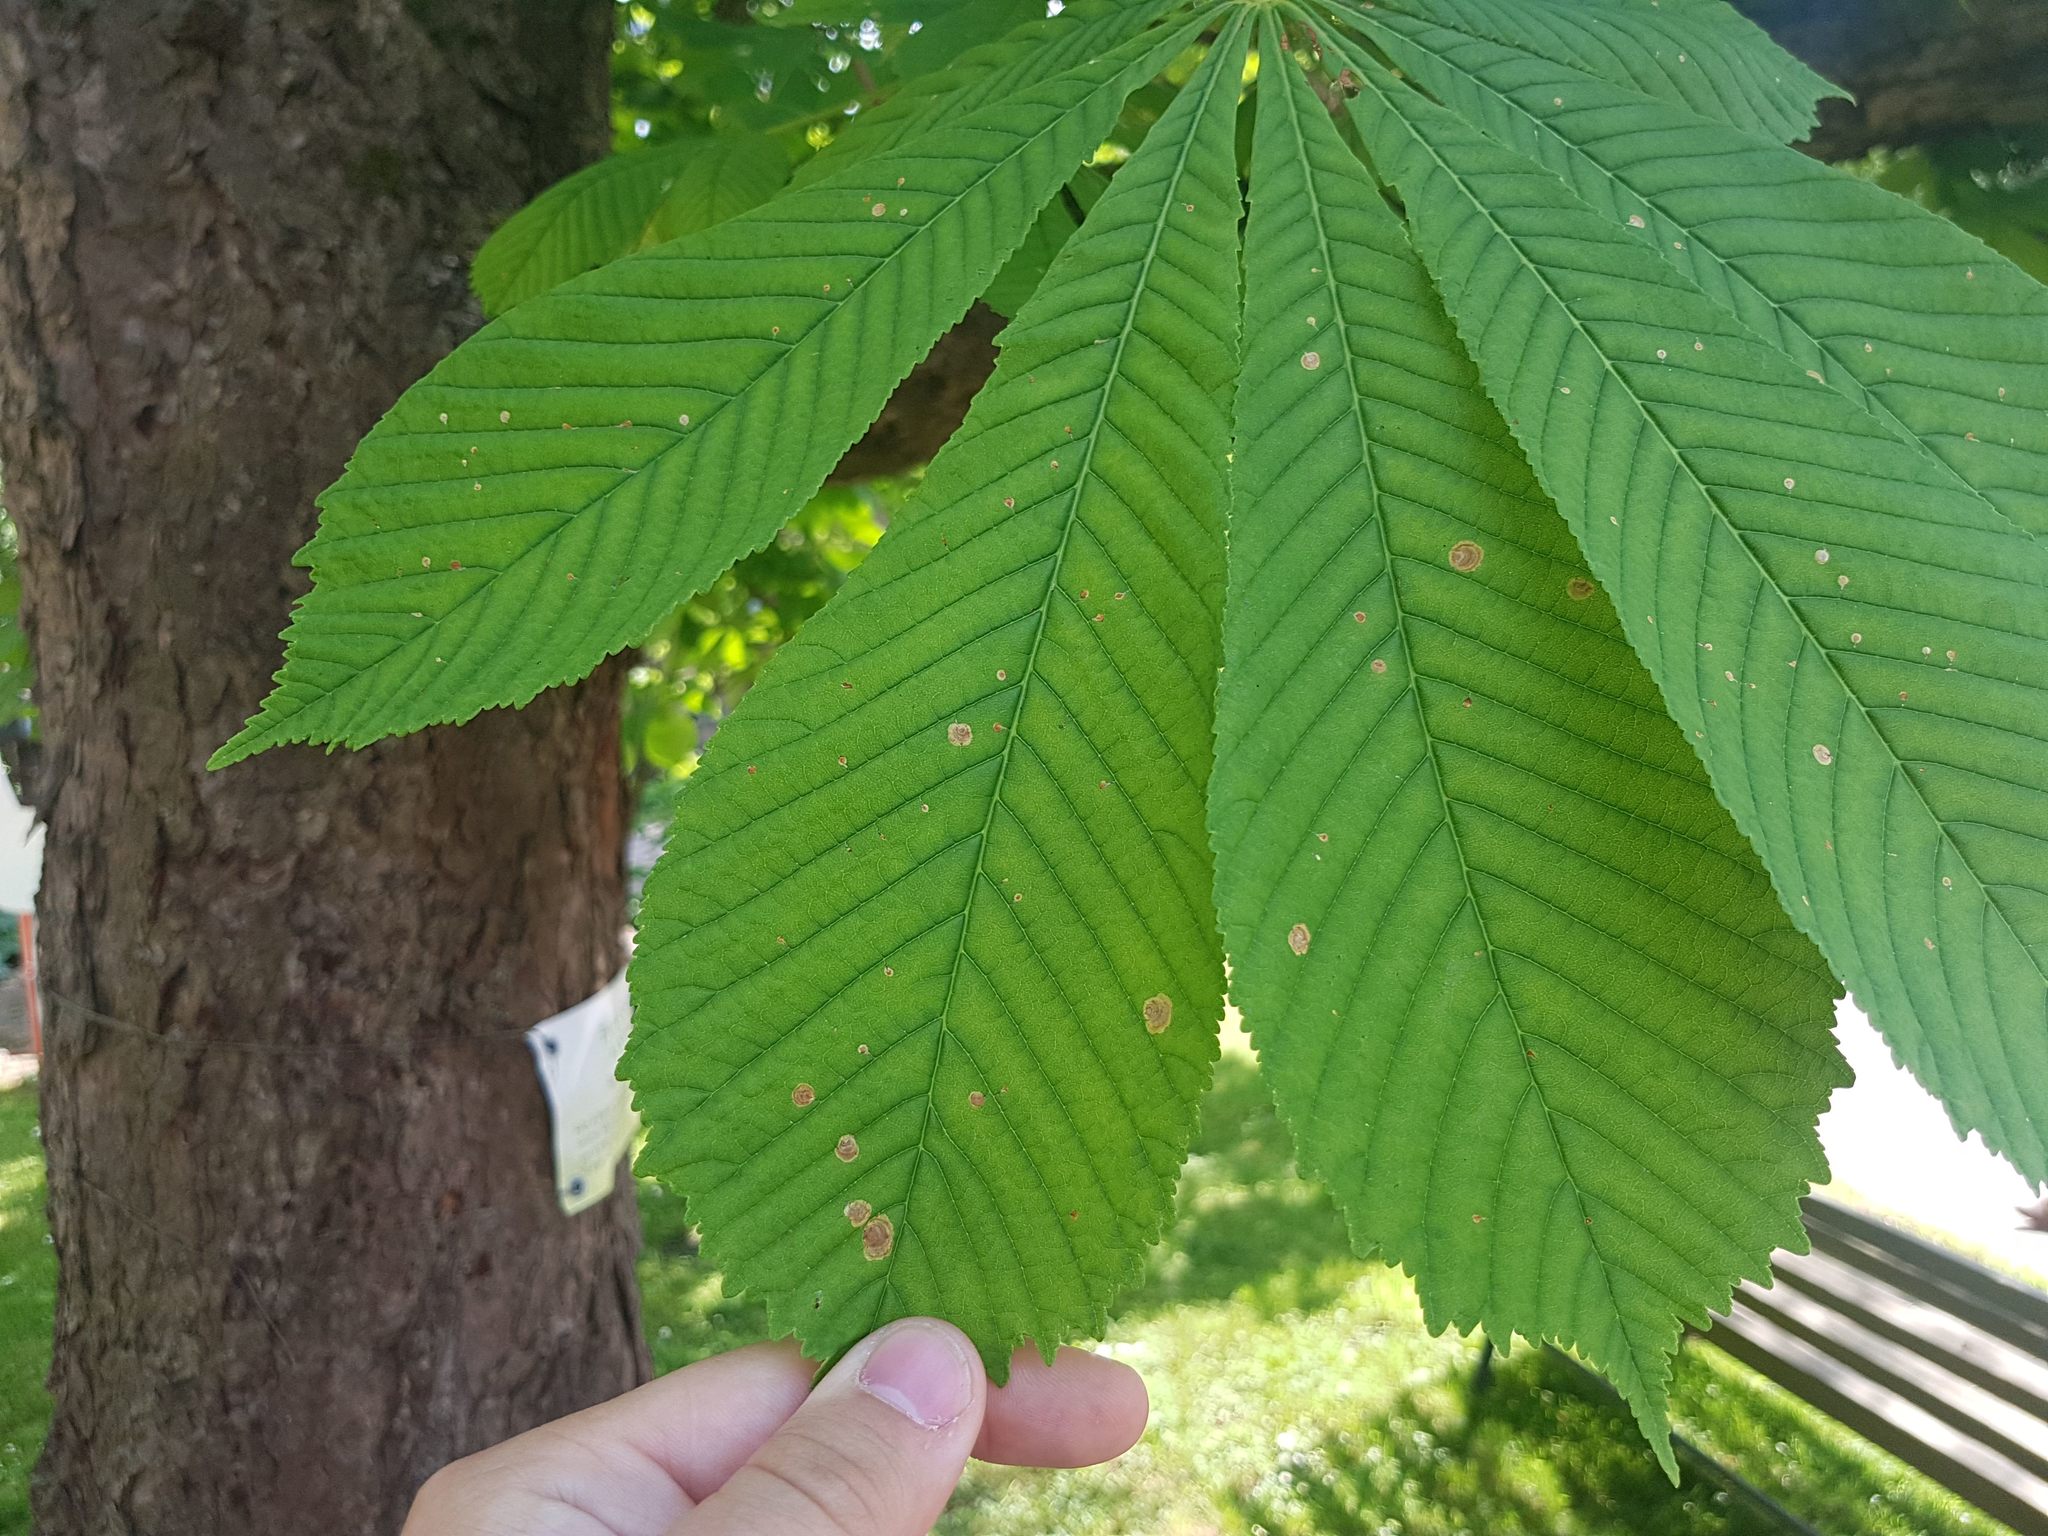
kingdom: Animalia
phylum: Arthropoda
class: Insecta
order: Lepidoptera
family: Gracillariidae
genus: Cameraria
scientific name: Cameraria ohridella
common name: Horse-chestnut leaf-miner
